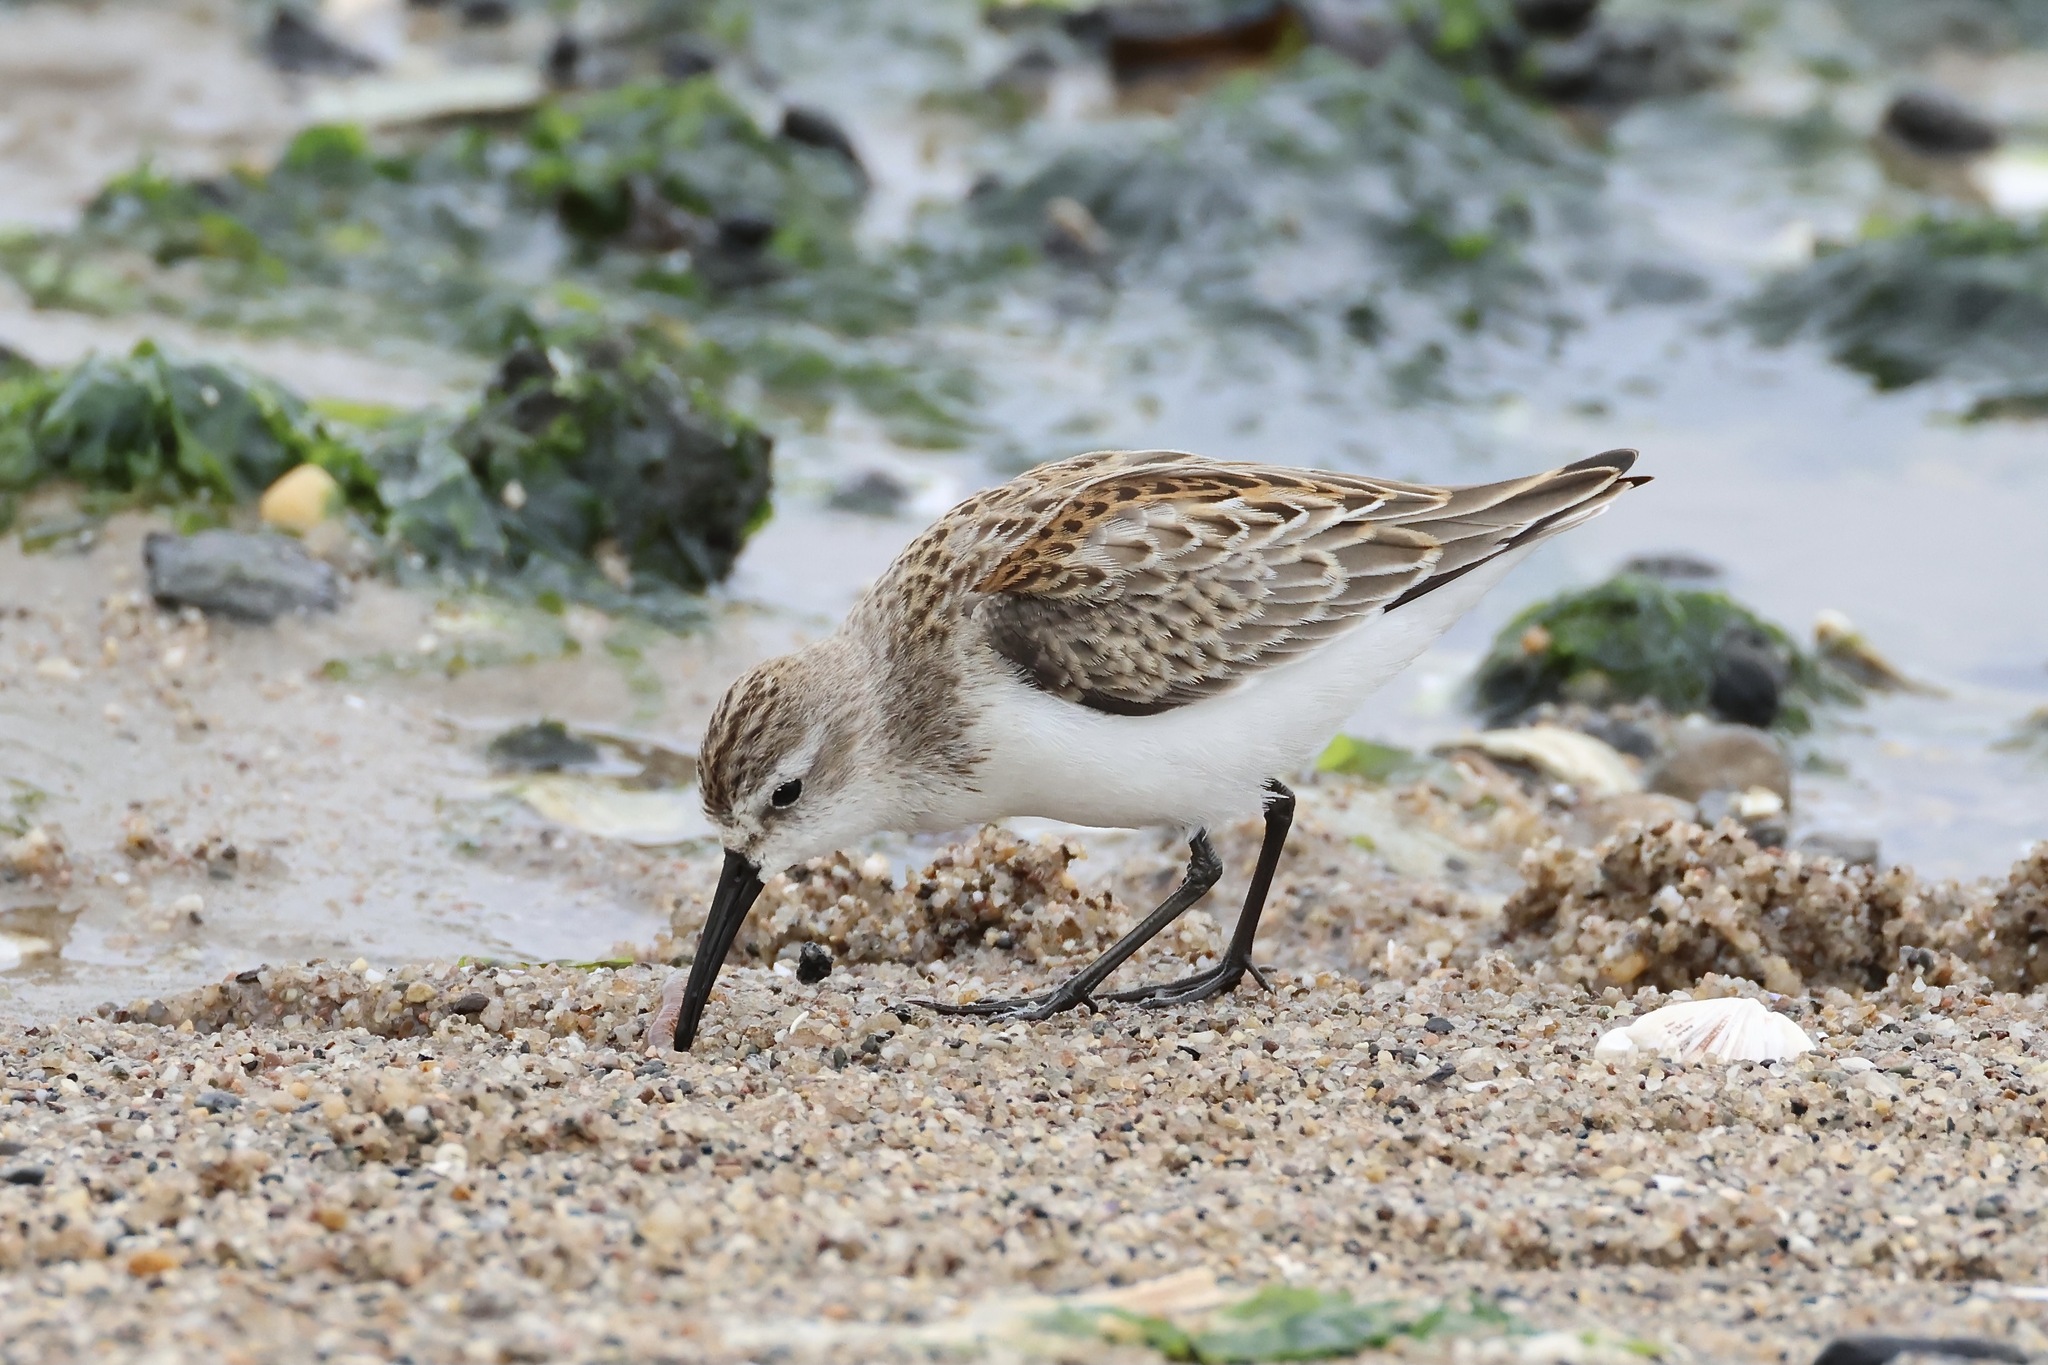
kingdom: Animalia
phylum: Chordata
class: Aves
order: Charadriiformes
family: Scolopacidae
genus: Calidris
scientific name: Calidris mauri
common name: Western sandpiper
